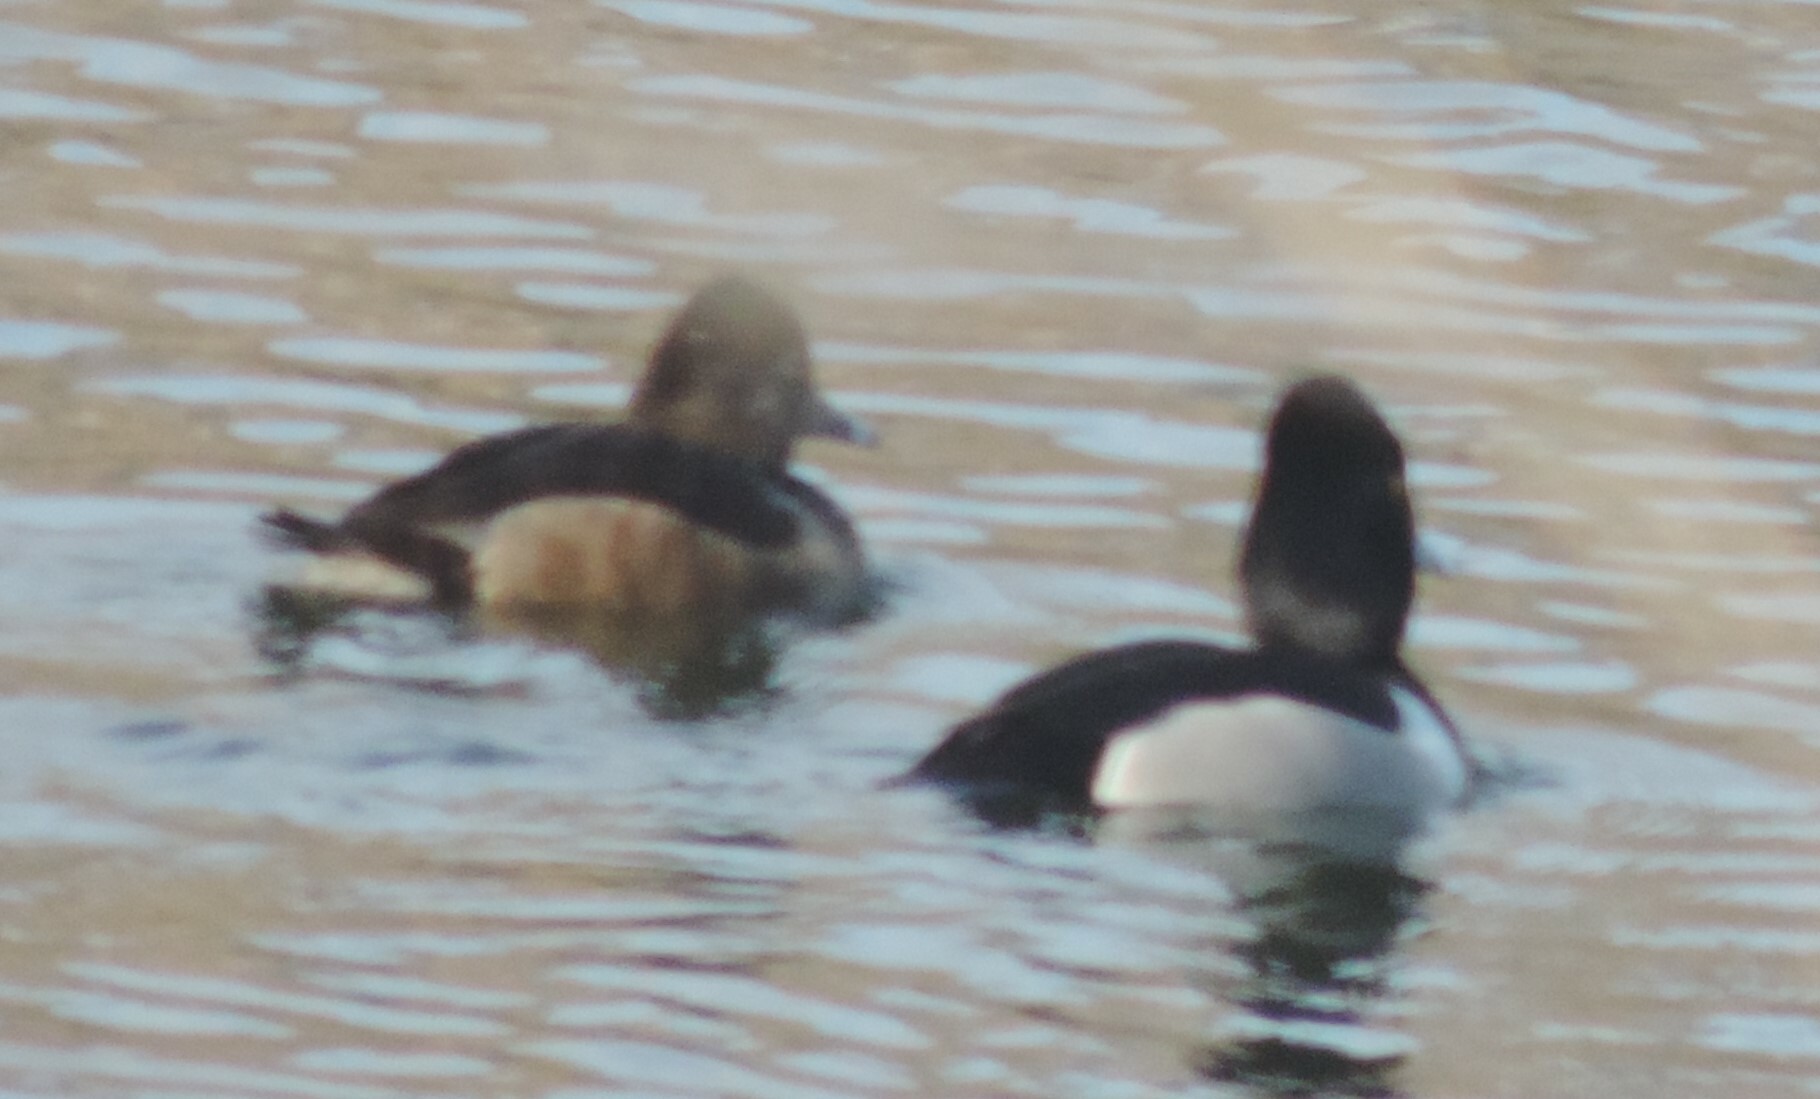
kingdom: Animalia
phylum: Chordata
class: Aves
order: Anseriformes
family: Anatidae
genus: Aythya
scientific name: Aythya collaris
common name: Ring-necked duck
